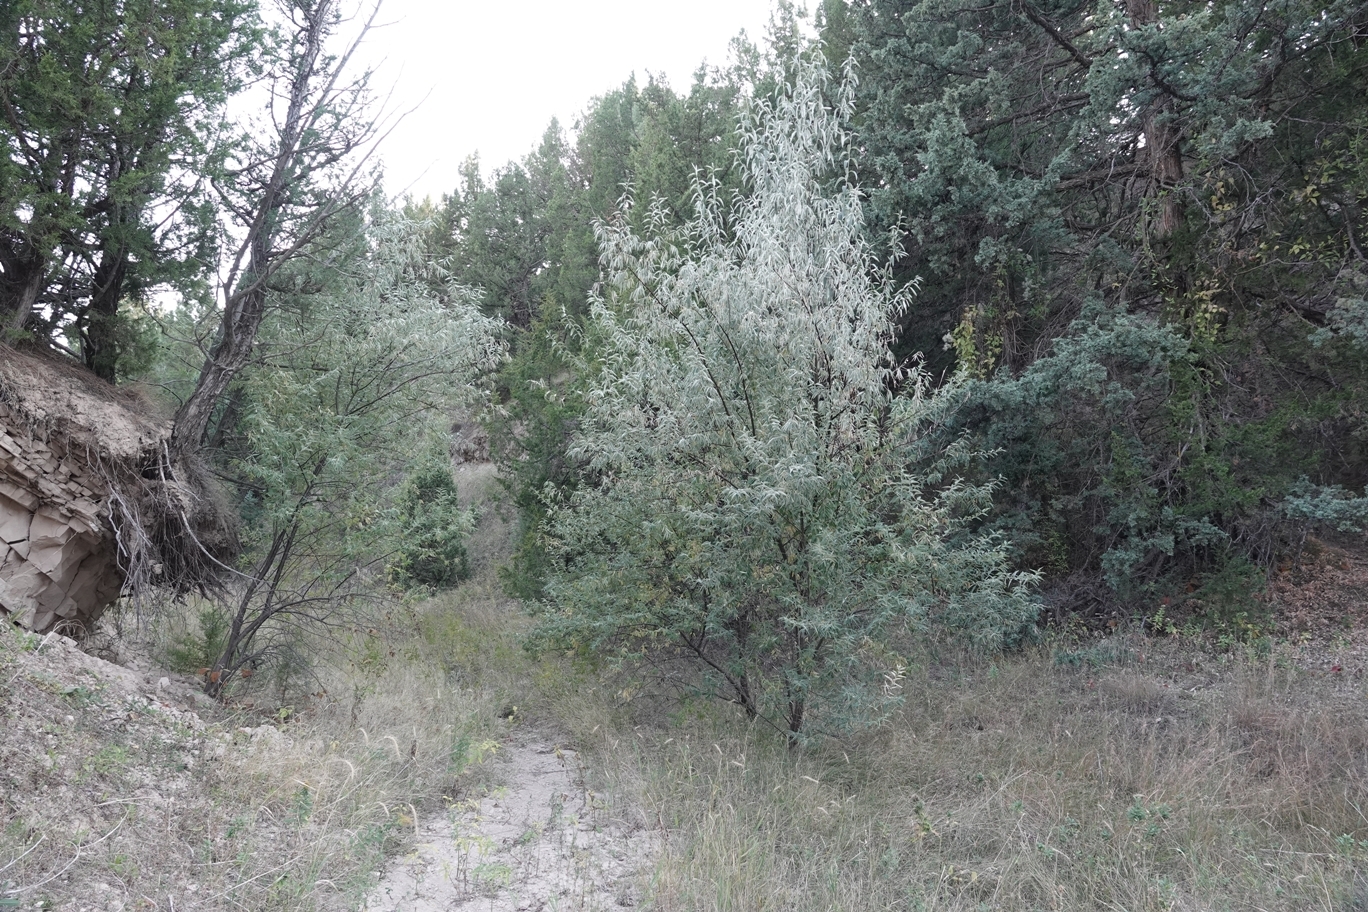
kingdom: Plantae
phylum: Tracheophyta
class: Magnoliopsida
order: Rosales
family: Elaeagnaceae
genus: Elaeagnus
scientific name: Elaeagnus angustifolia
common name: Russian olive
